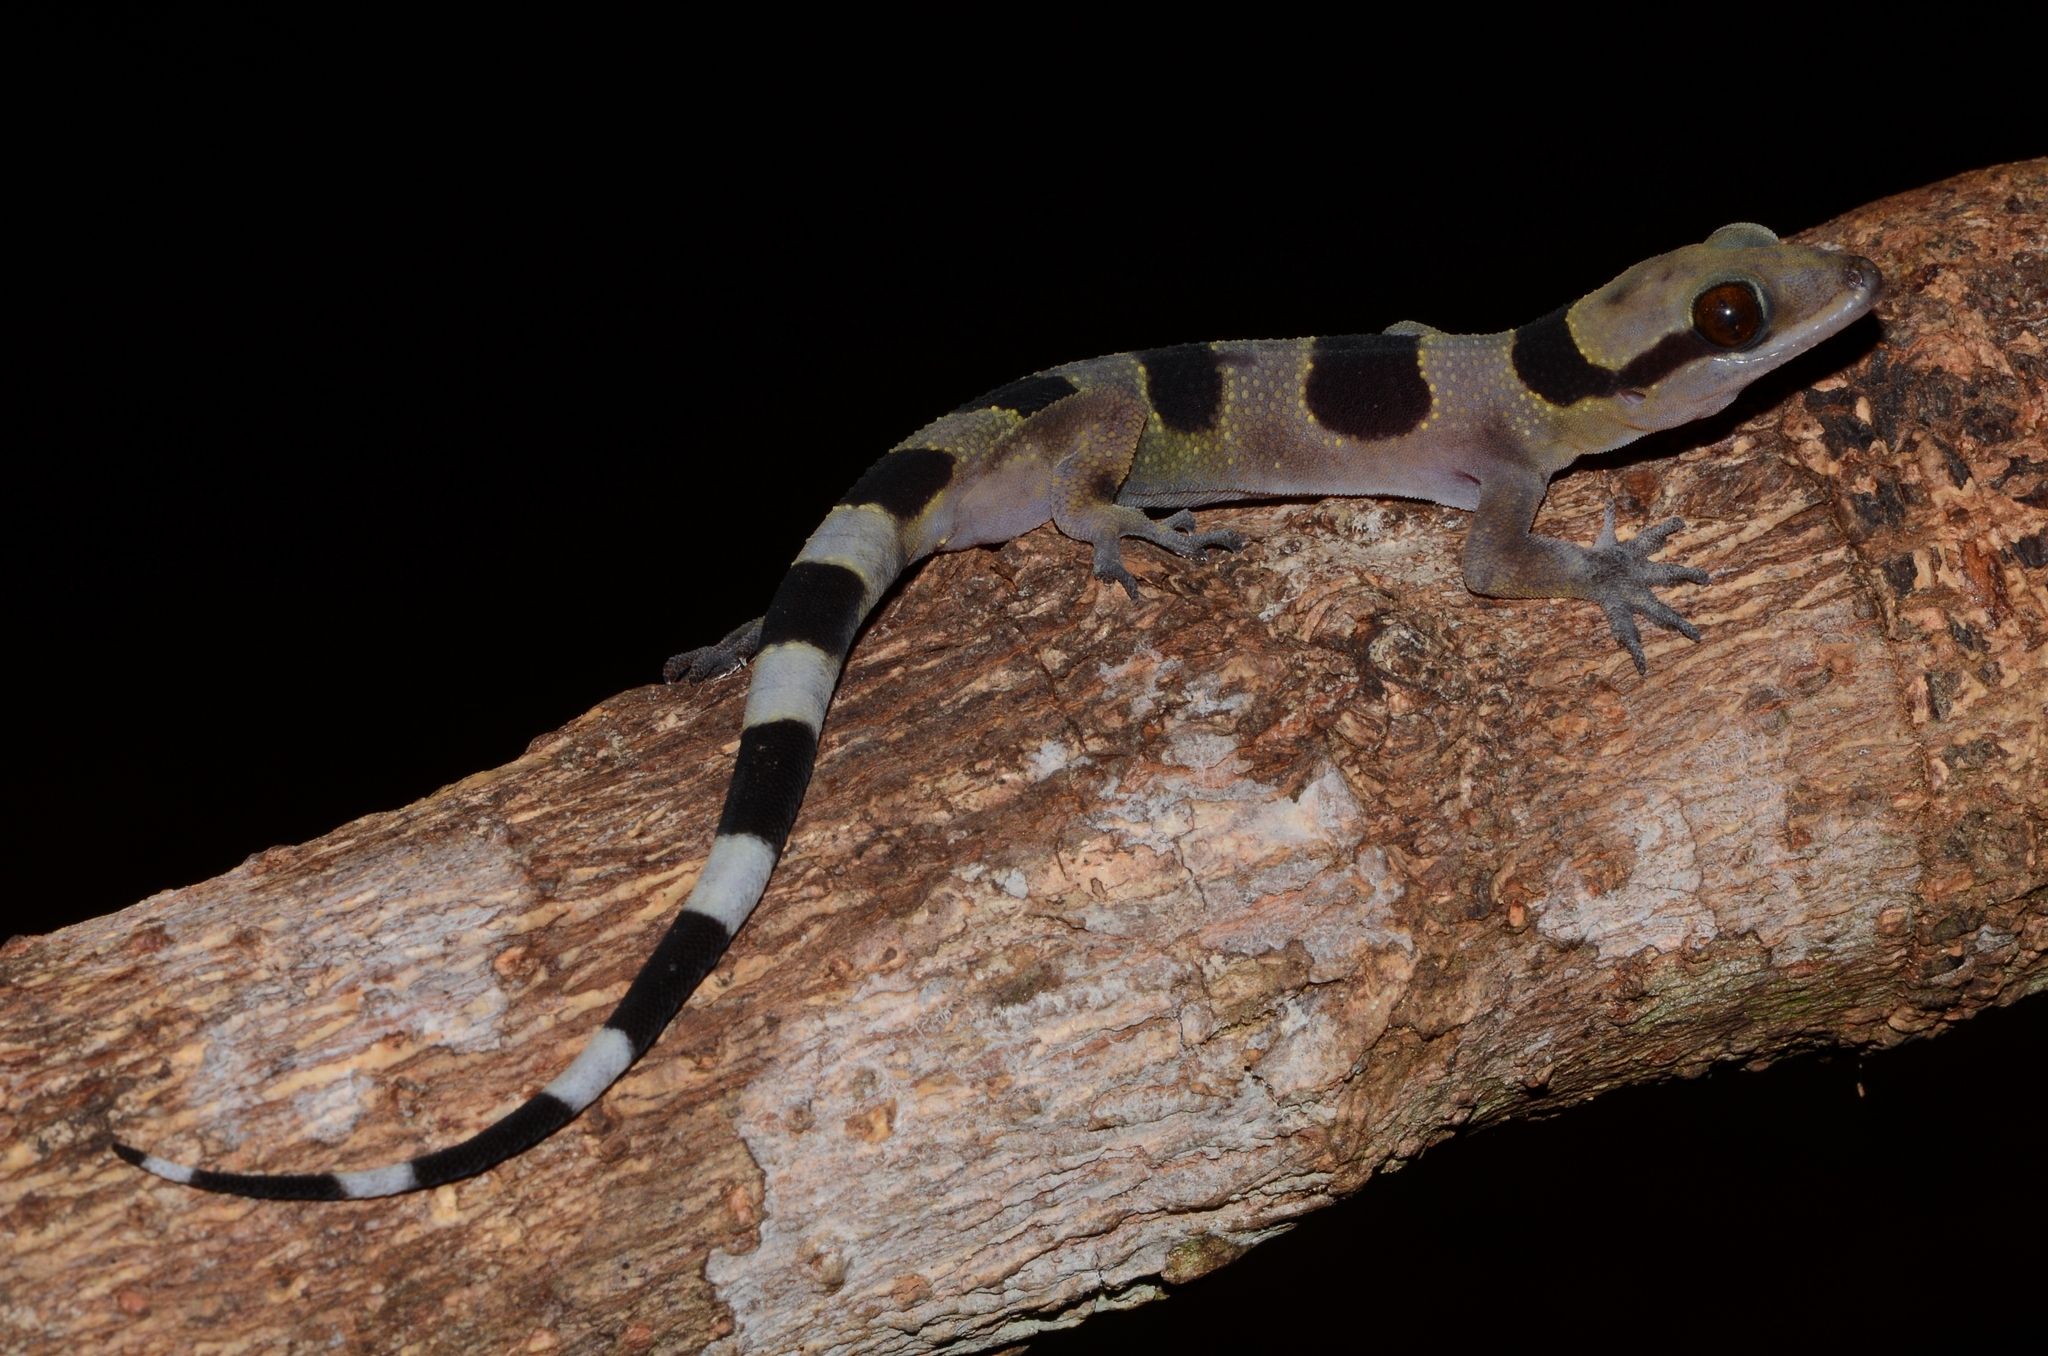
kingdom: Animalia
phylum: Chordata
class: Squamata
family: Gekkonidae
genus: Hemidactylus
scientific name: Hemidactylus coalescens
